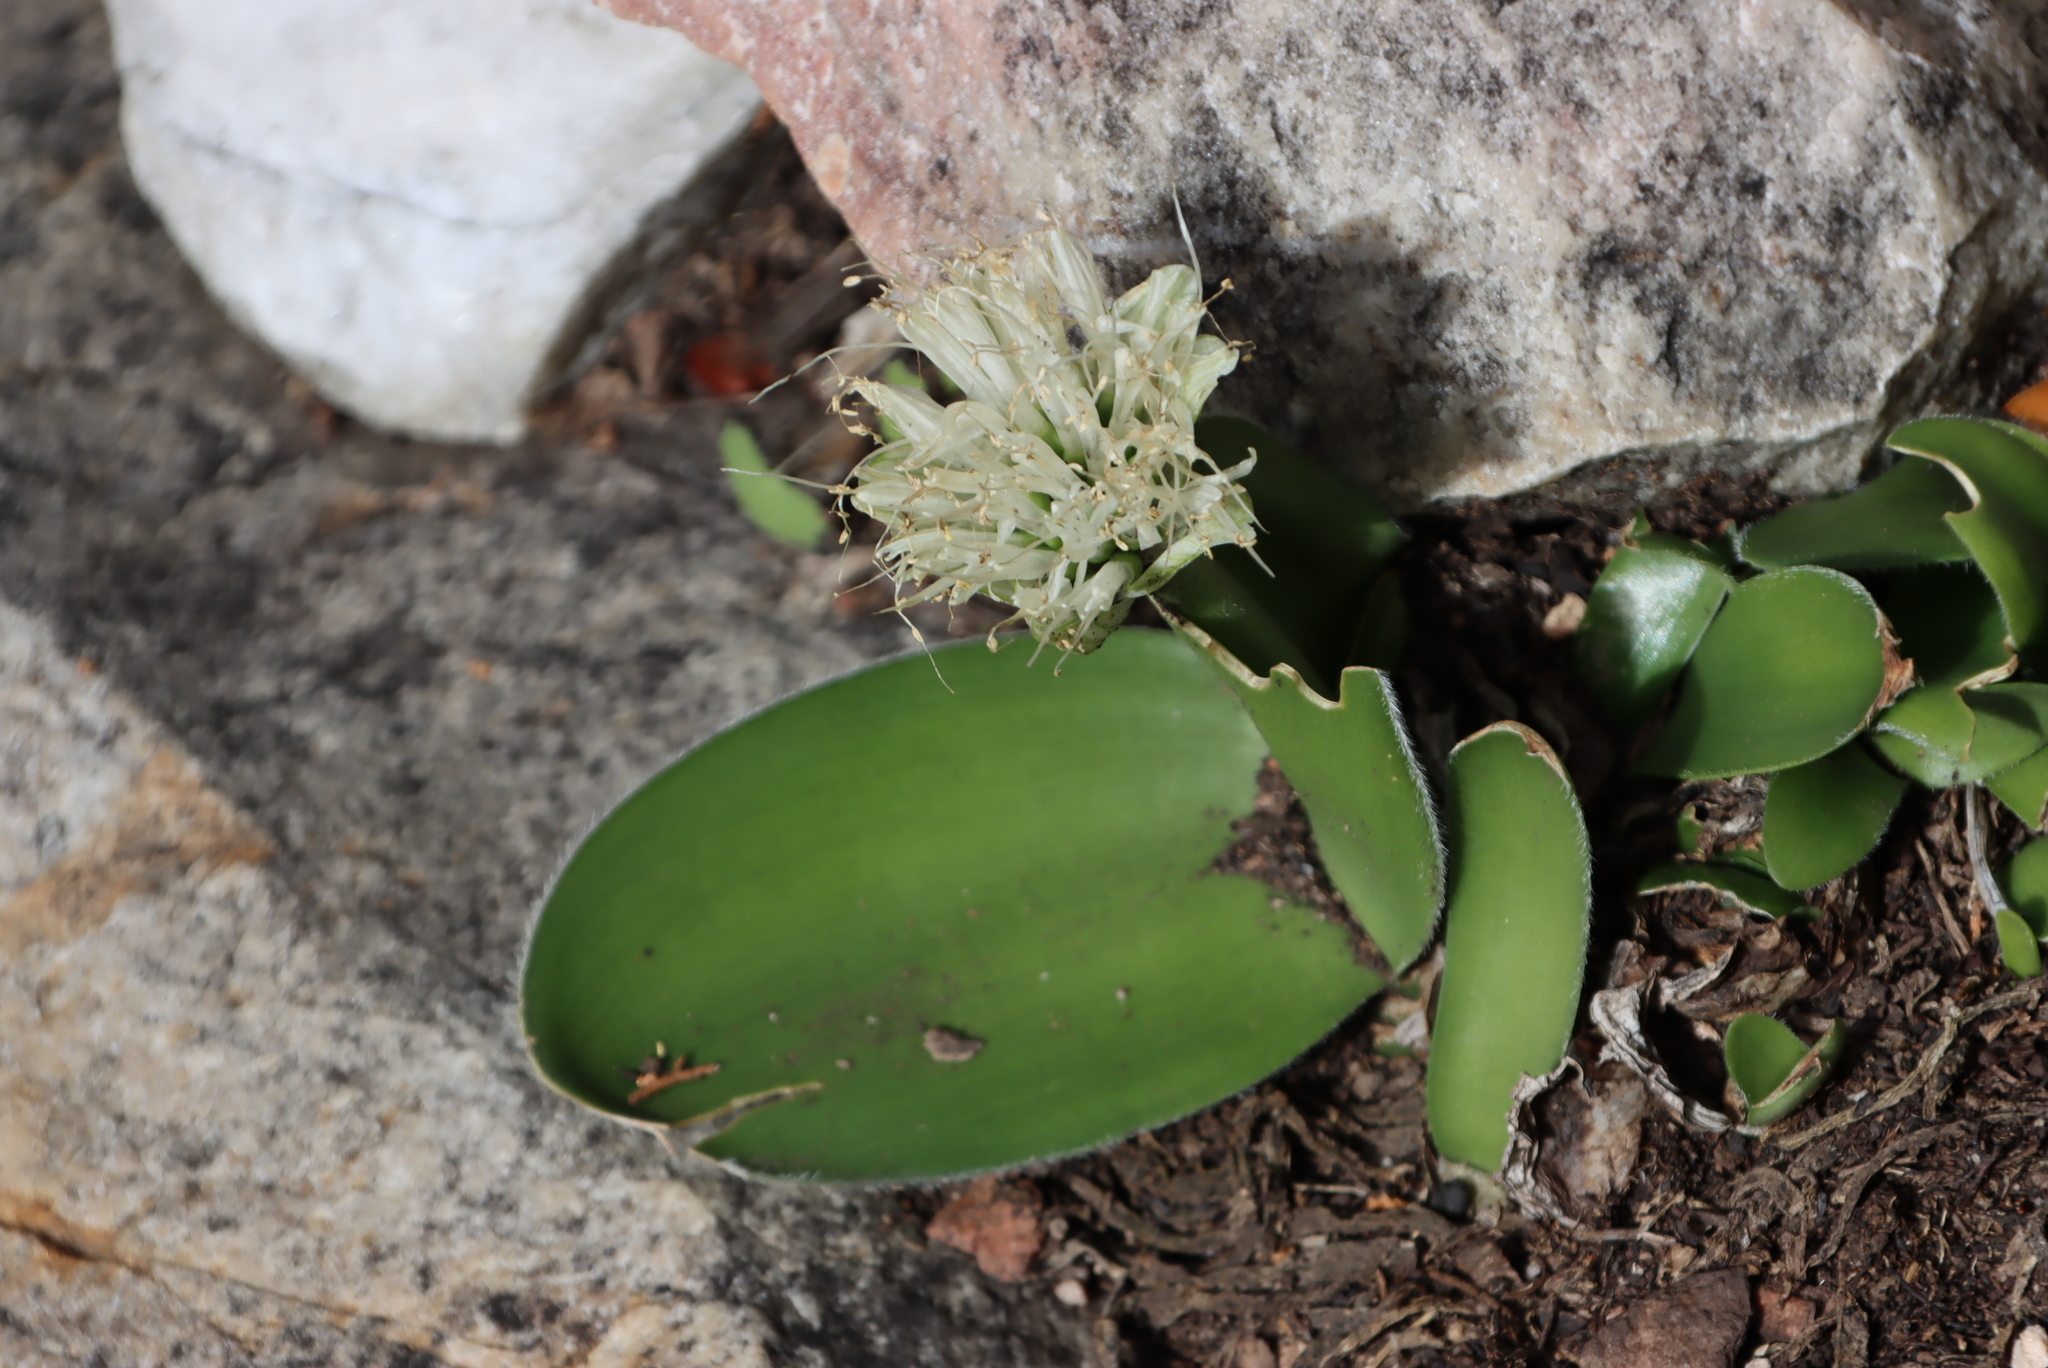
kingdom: Plantae
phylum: Tracheophyta
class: Liliopsida
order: Asparagales
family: Amaryllidaceae
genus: Haemanthus
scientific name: Haemanthus albiflos
